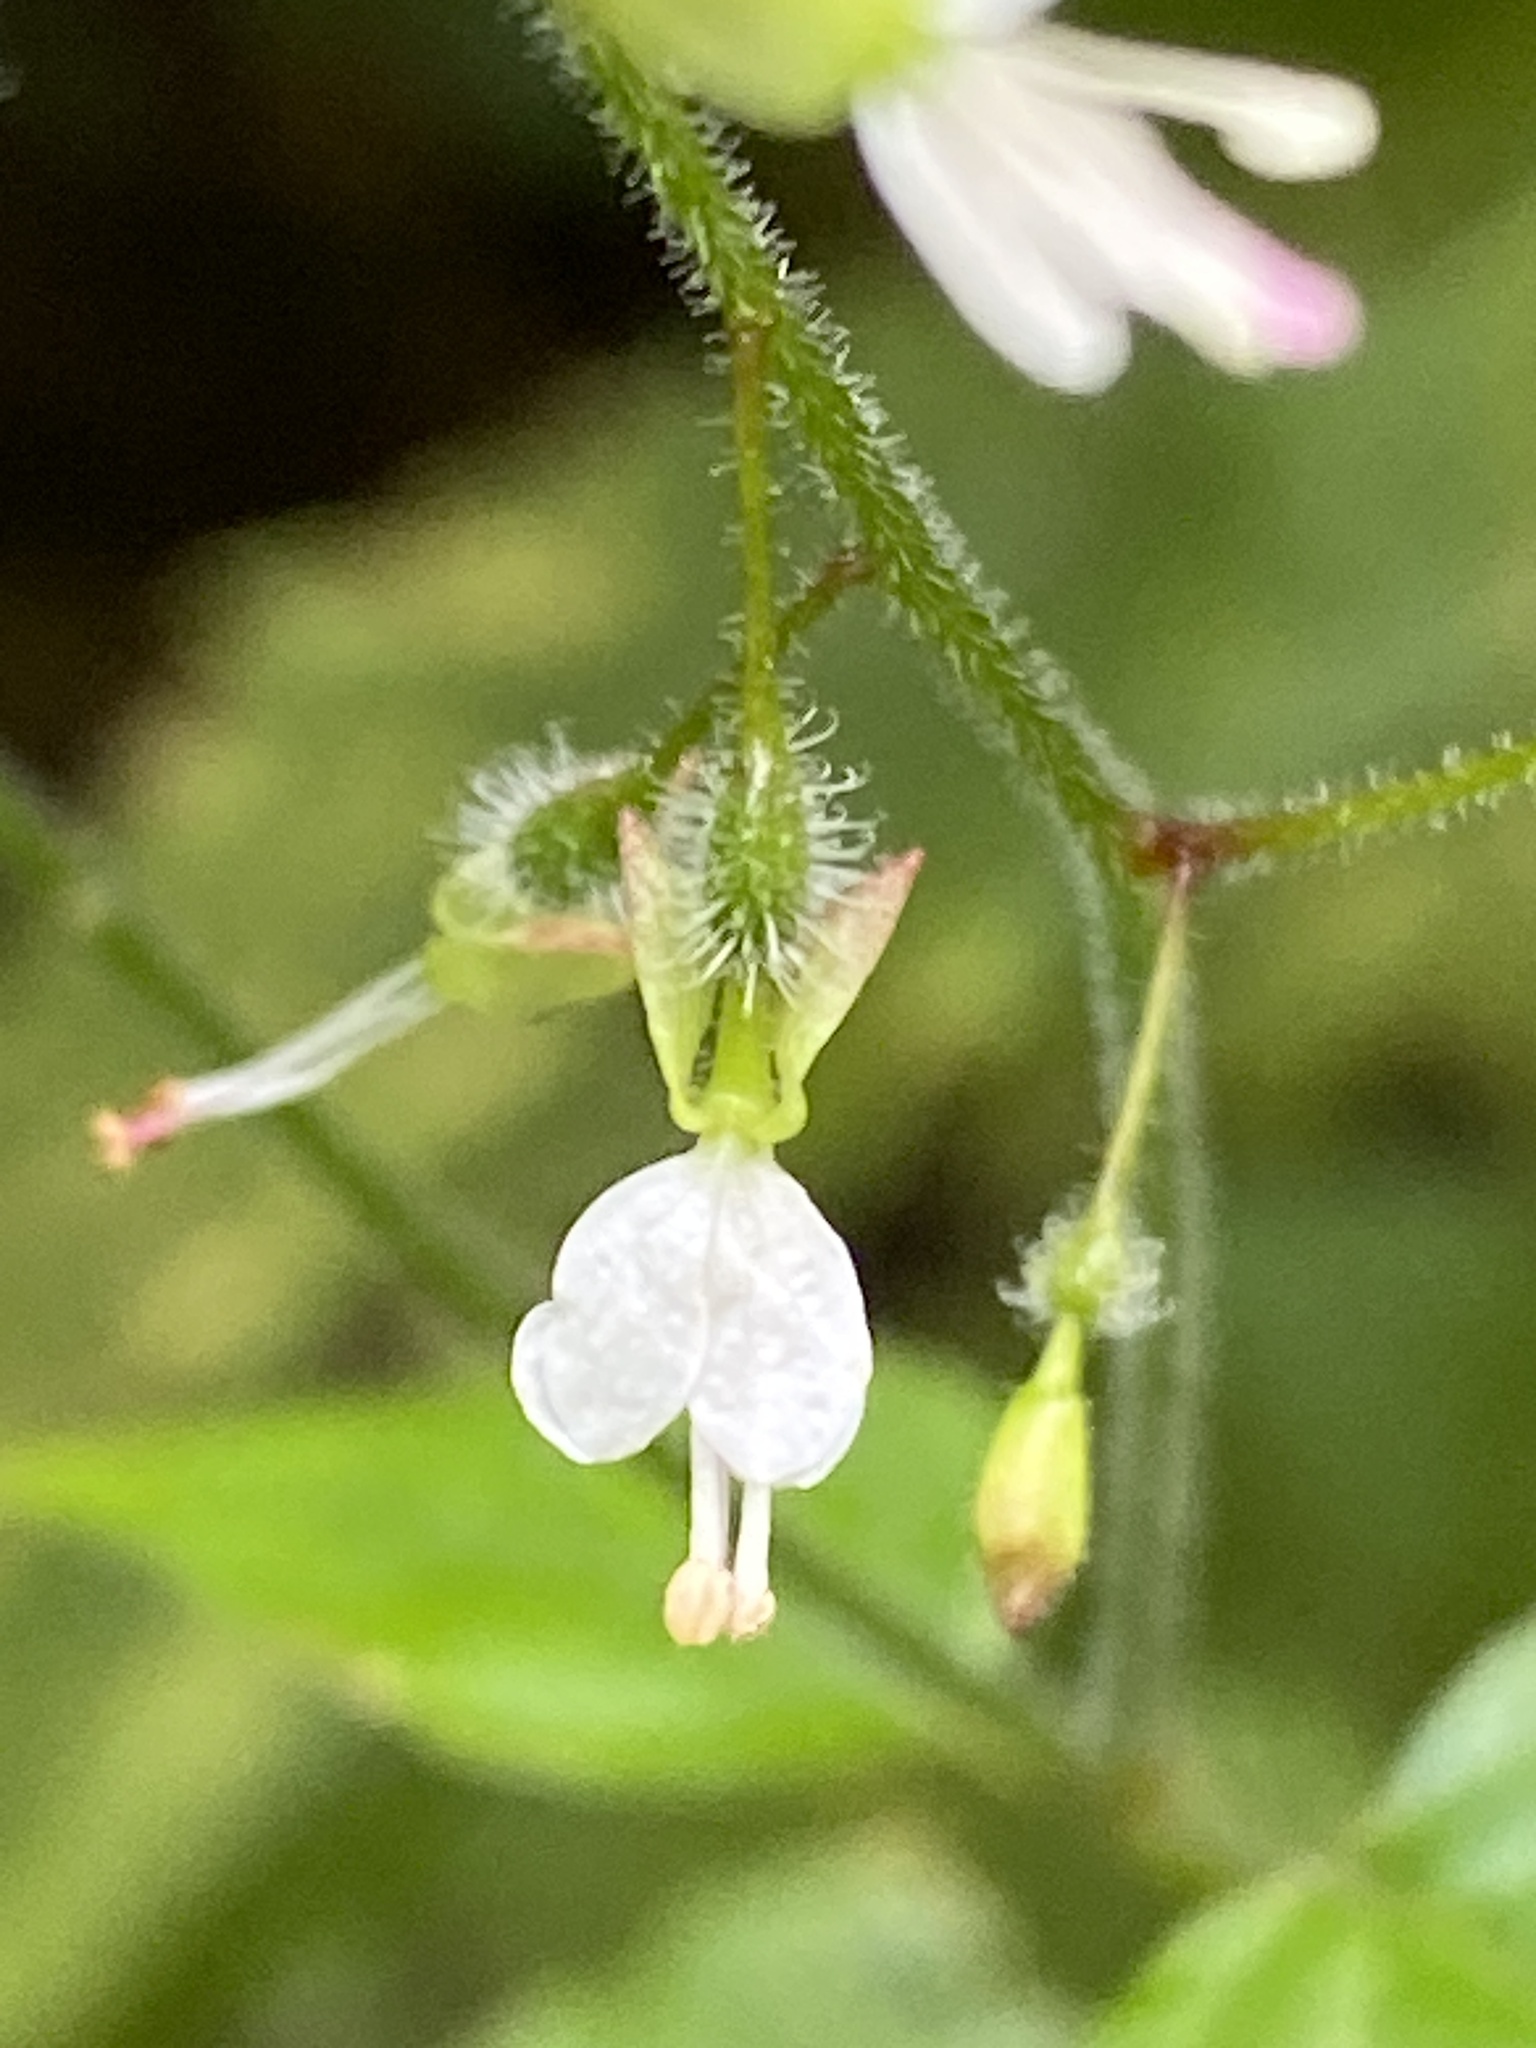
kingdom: Plantae
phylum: Tracheophyta
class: Magnoliopsida
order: Myrtales
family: Onagraceae
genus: Circaea
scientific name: Circaea lutetiana
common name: Enchanter's-nightshade
